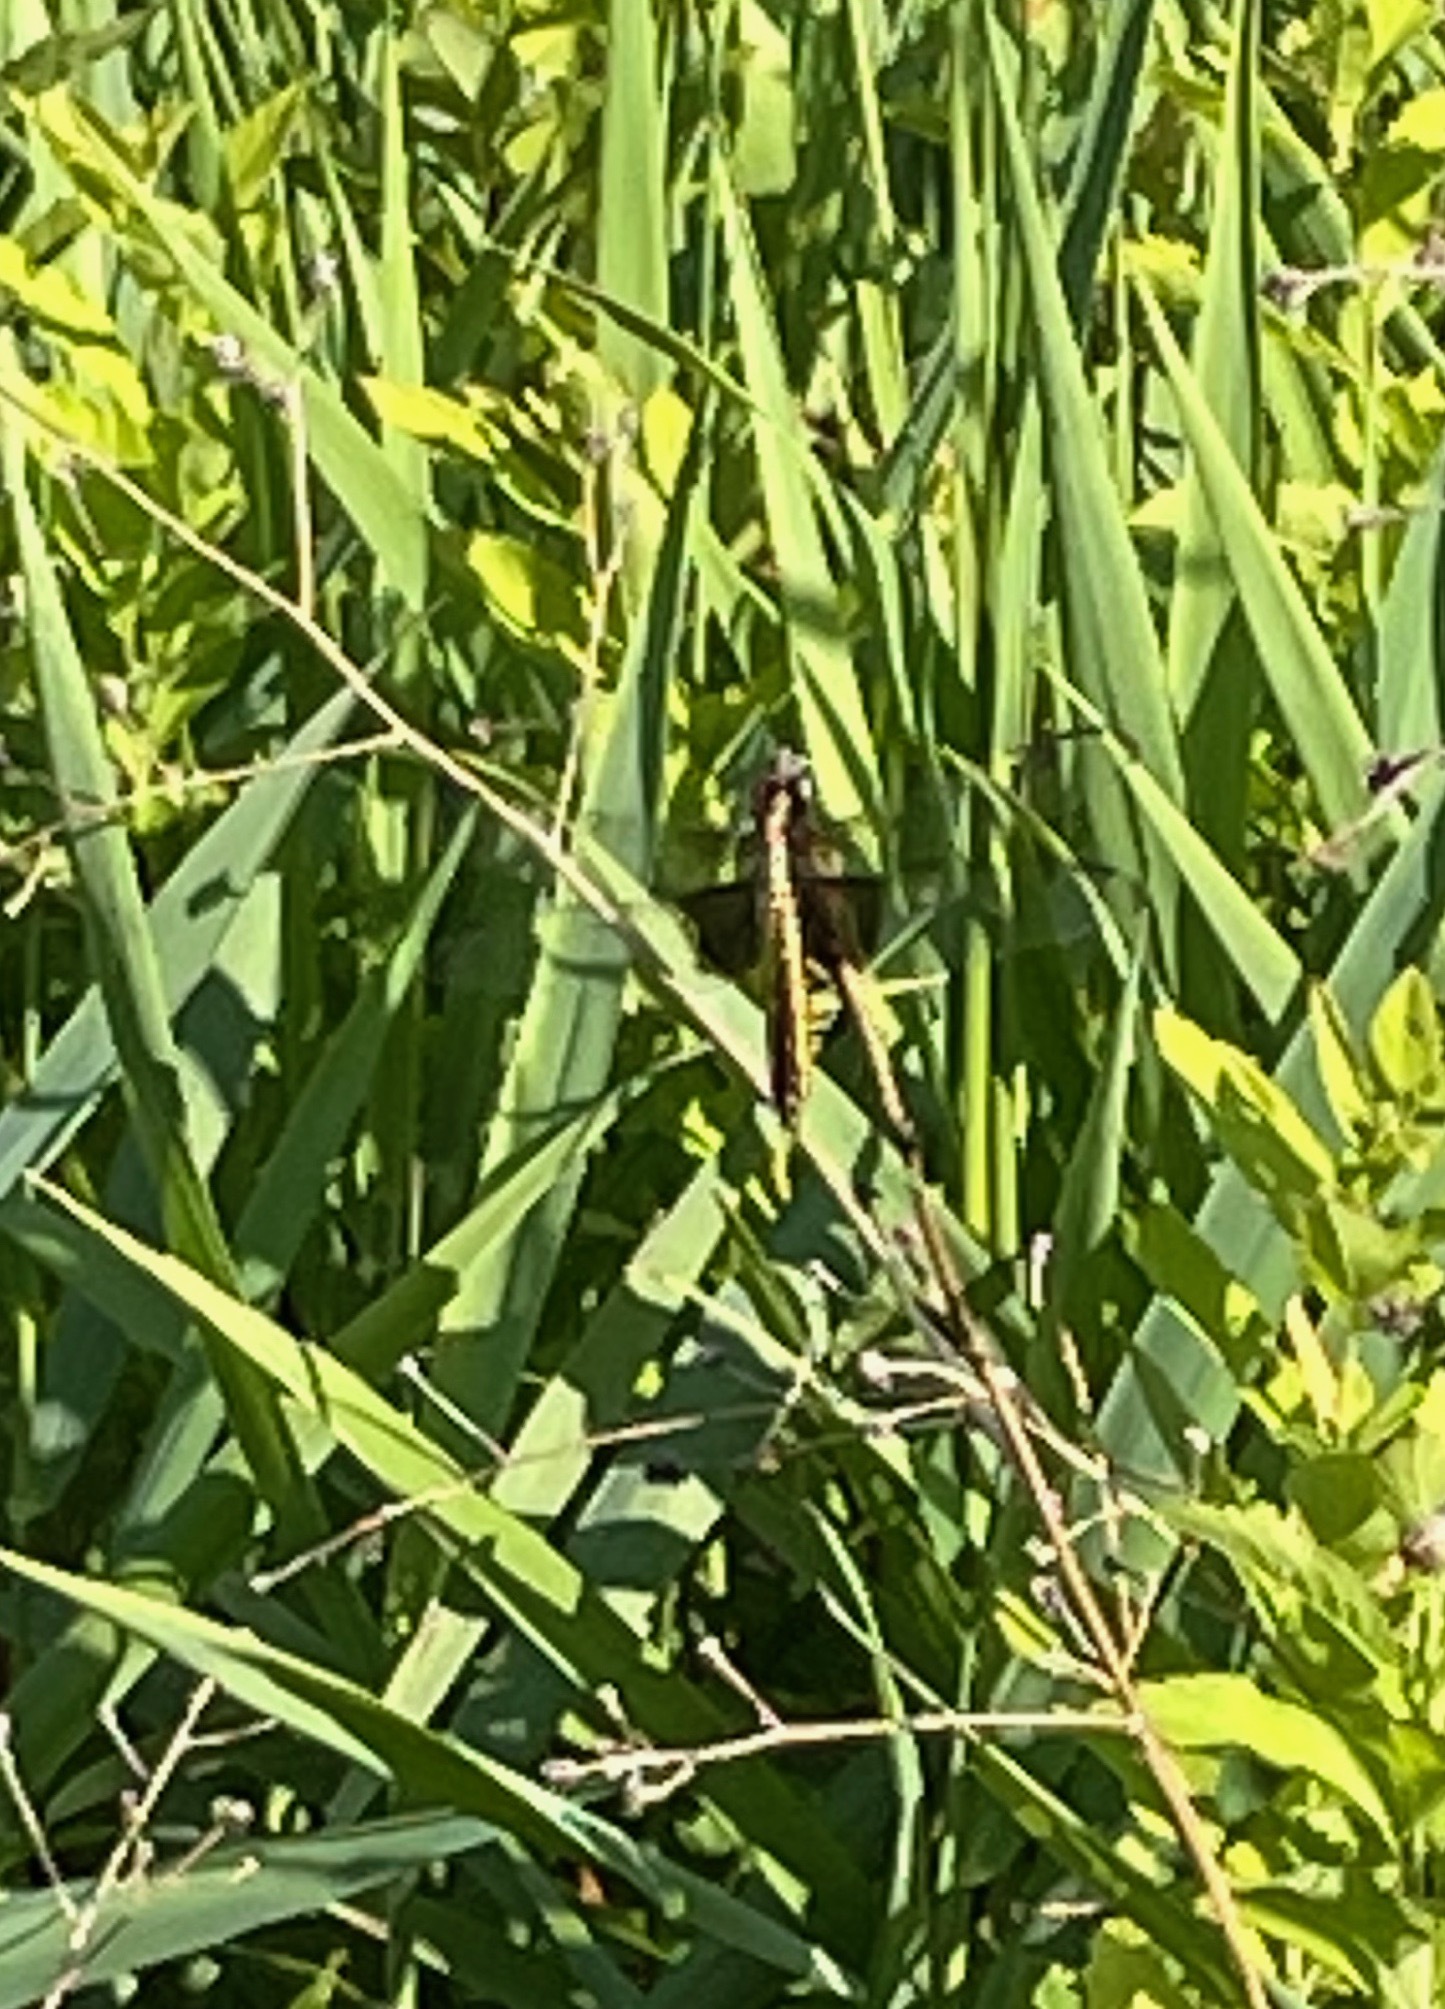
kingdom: Animalia
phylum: Arthropoda
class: Insecta
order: Odonata
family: Libellulidae
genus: Libellula
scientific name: Libellula luctuosa
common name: Widow skimmer
